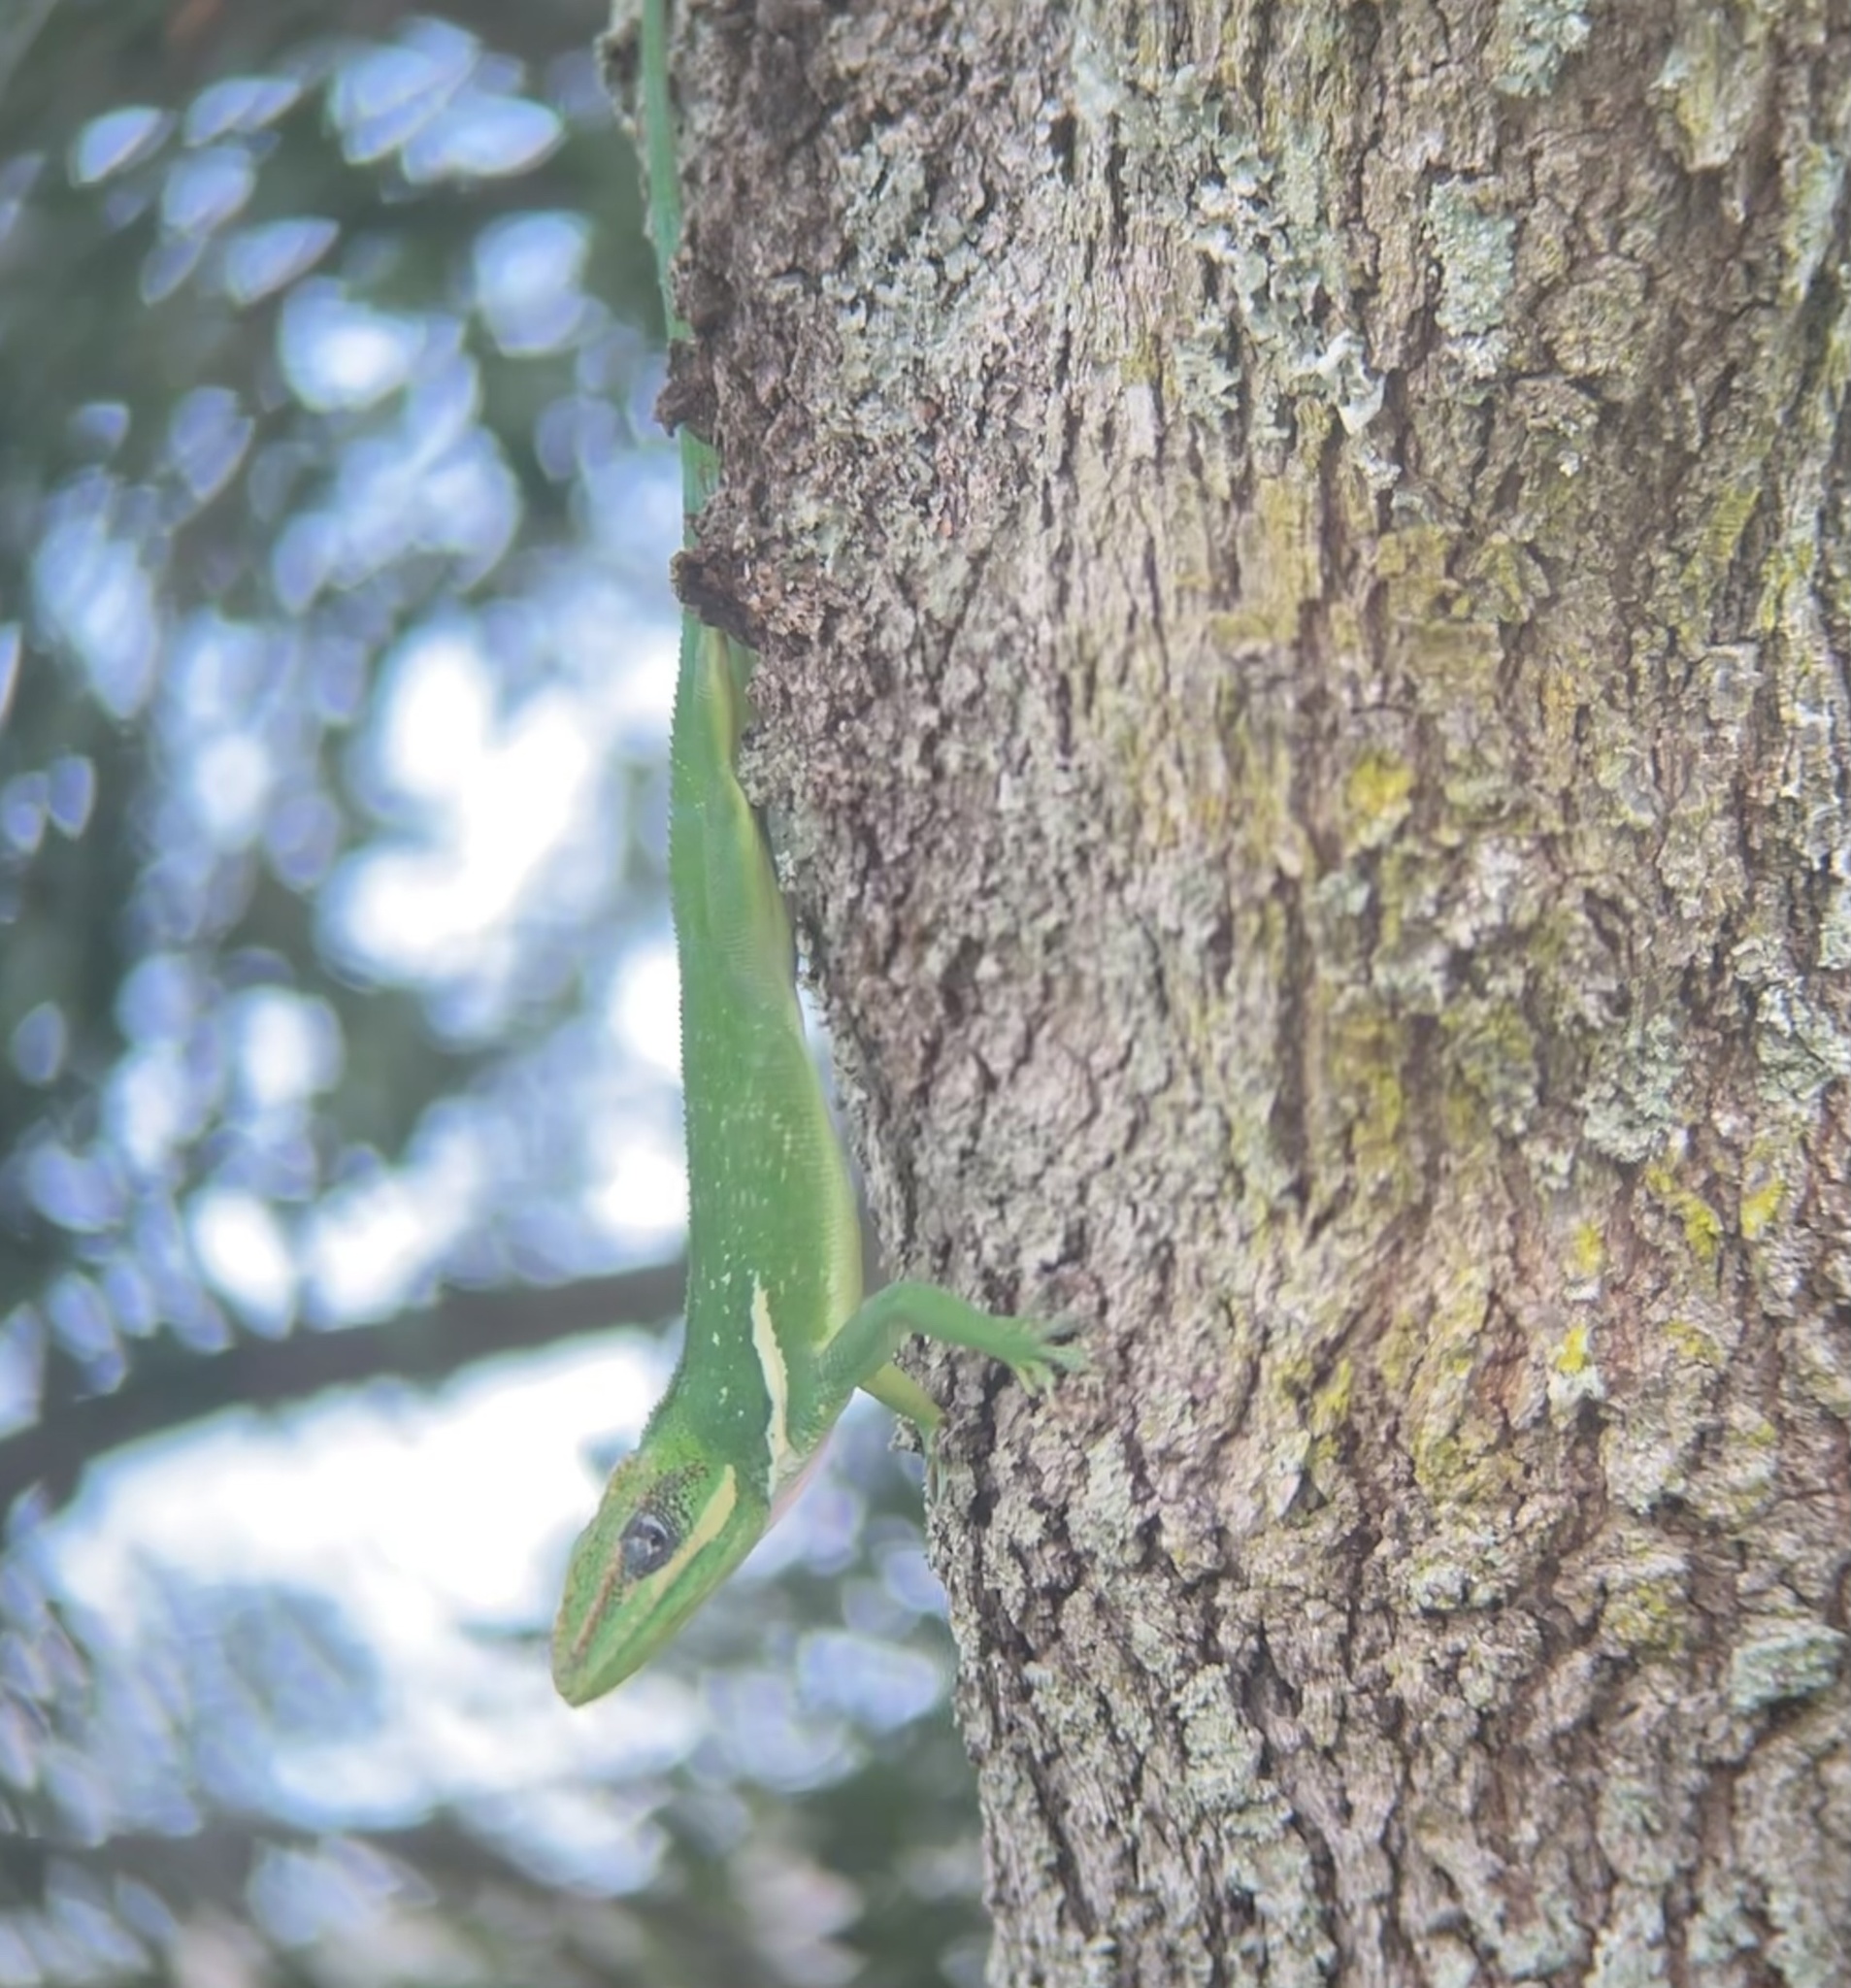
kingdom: Animalia
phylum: Chordata
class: Squamata
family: Dactyloidae
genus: Anolis
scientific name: Anolis equestris
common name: Knight anole
